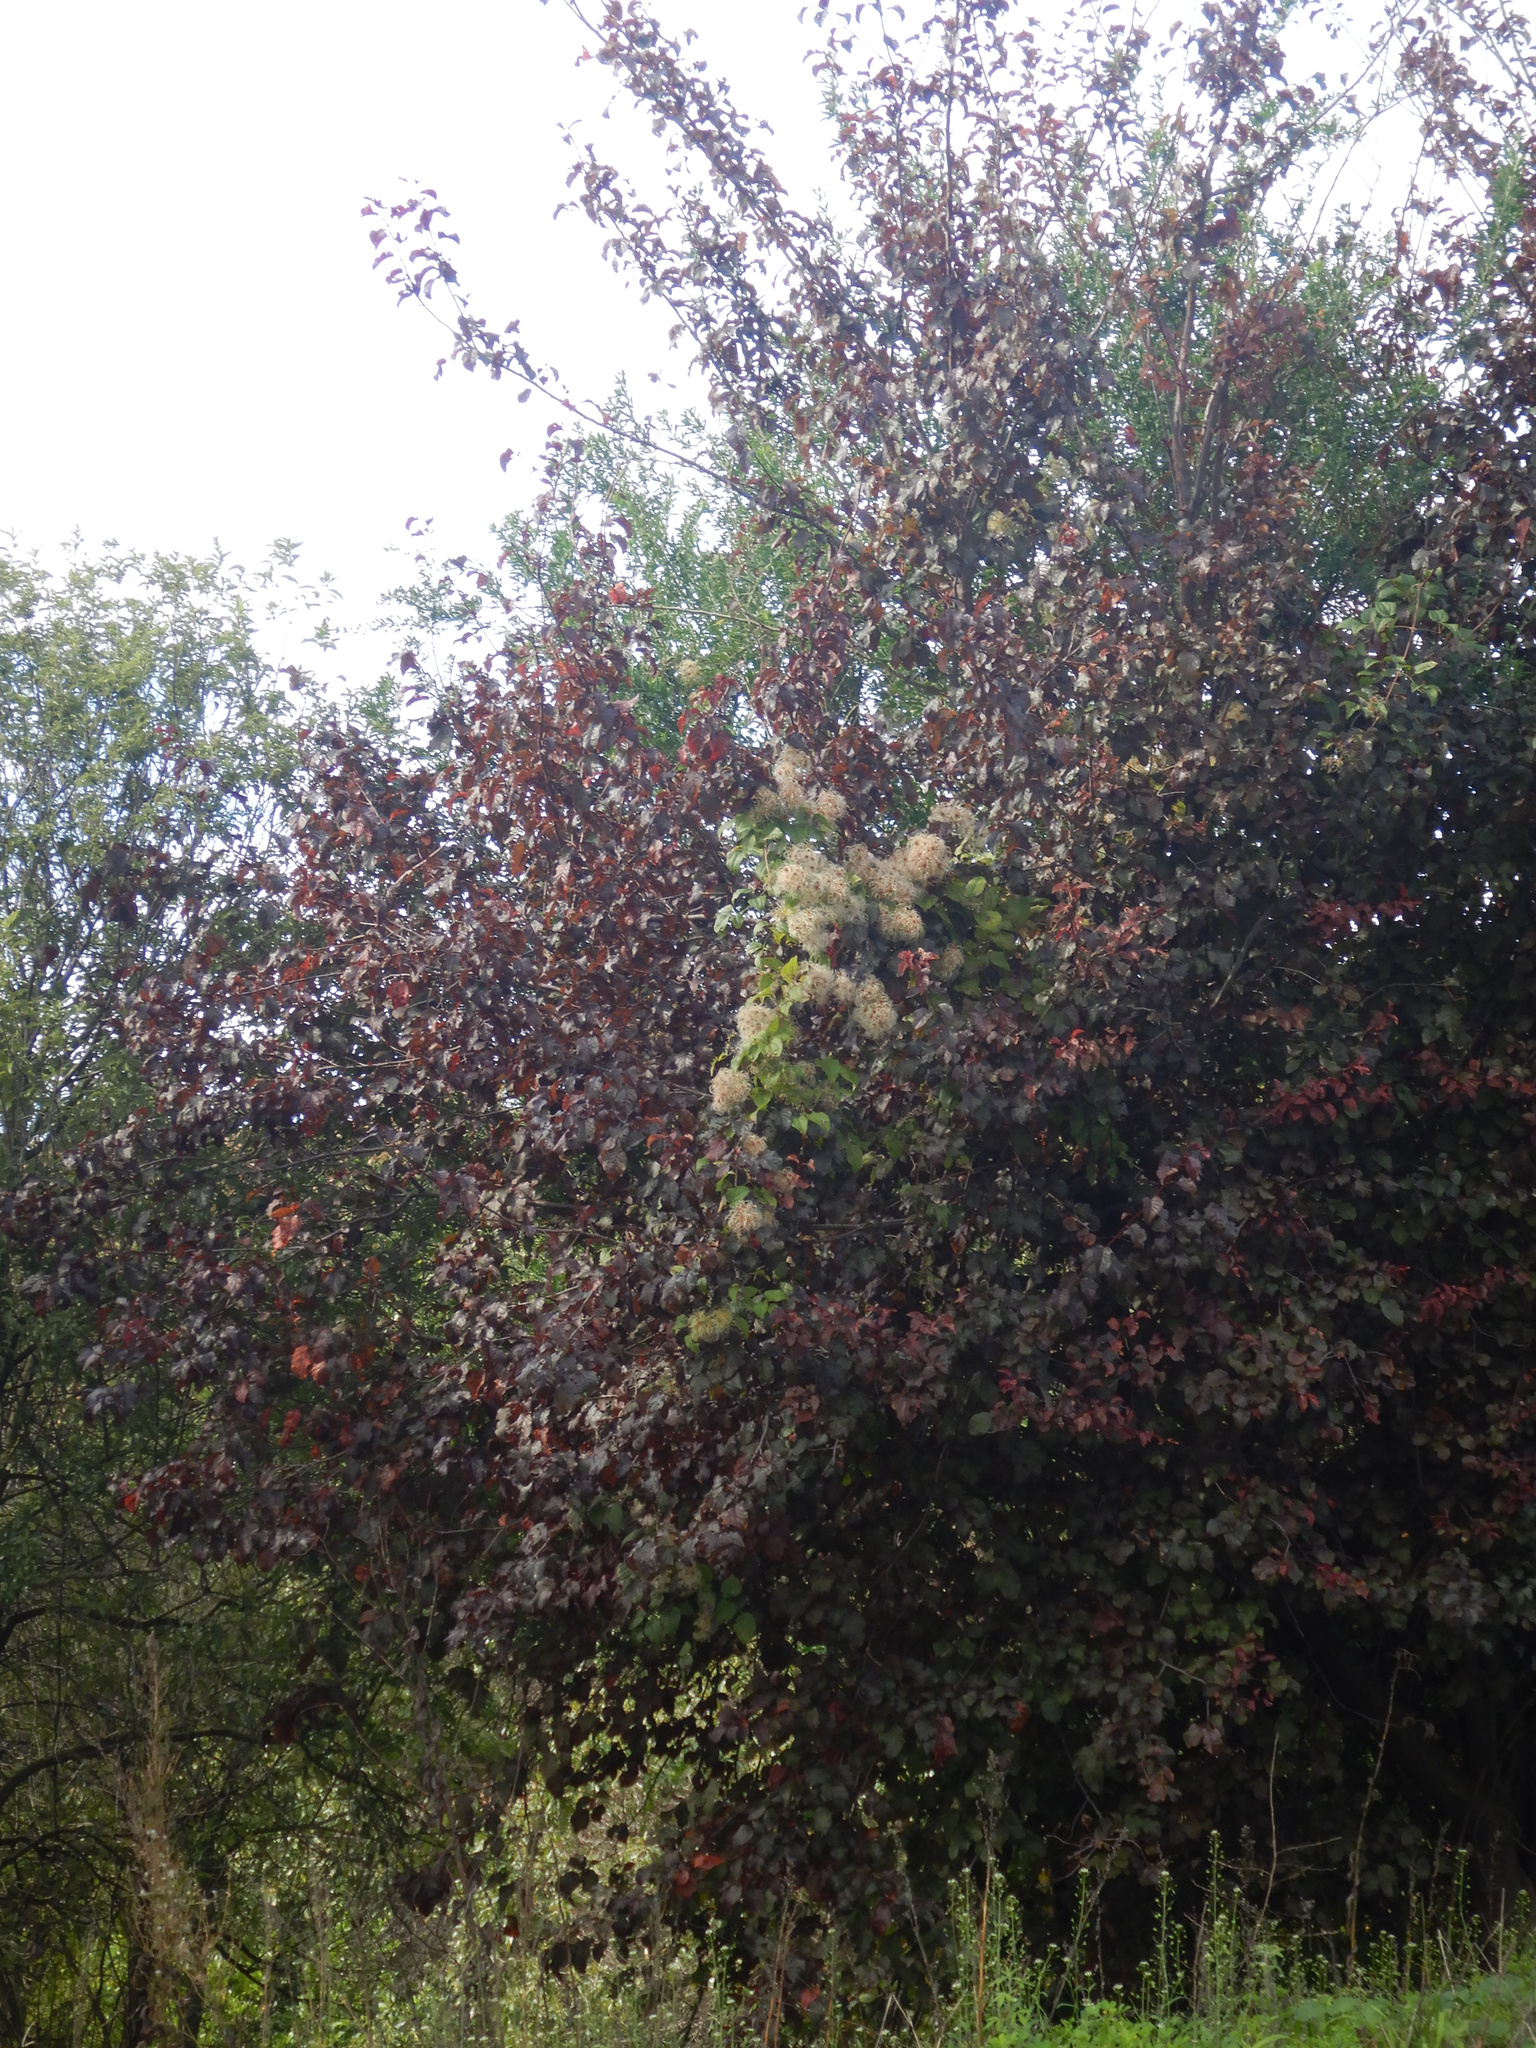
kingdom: Plantae
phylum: Tracheophyta
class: Magnoliopsida
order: Ranunculales
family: Ranunculaceae
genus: Clematis
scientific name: Clematis vitalba
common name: Evergreen clematis
